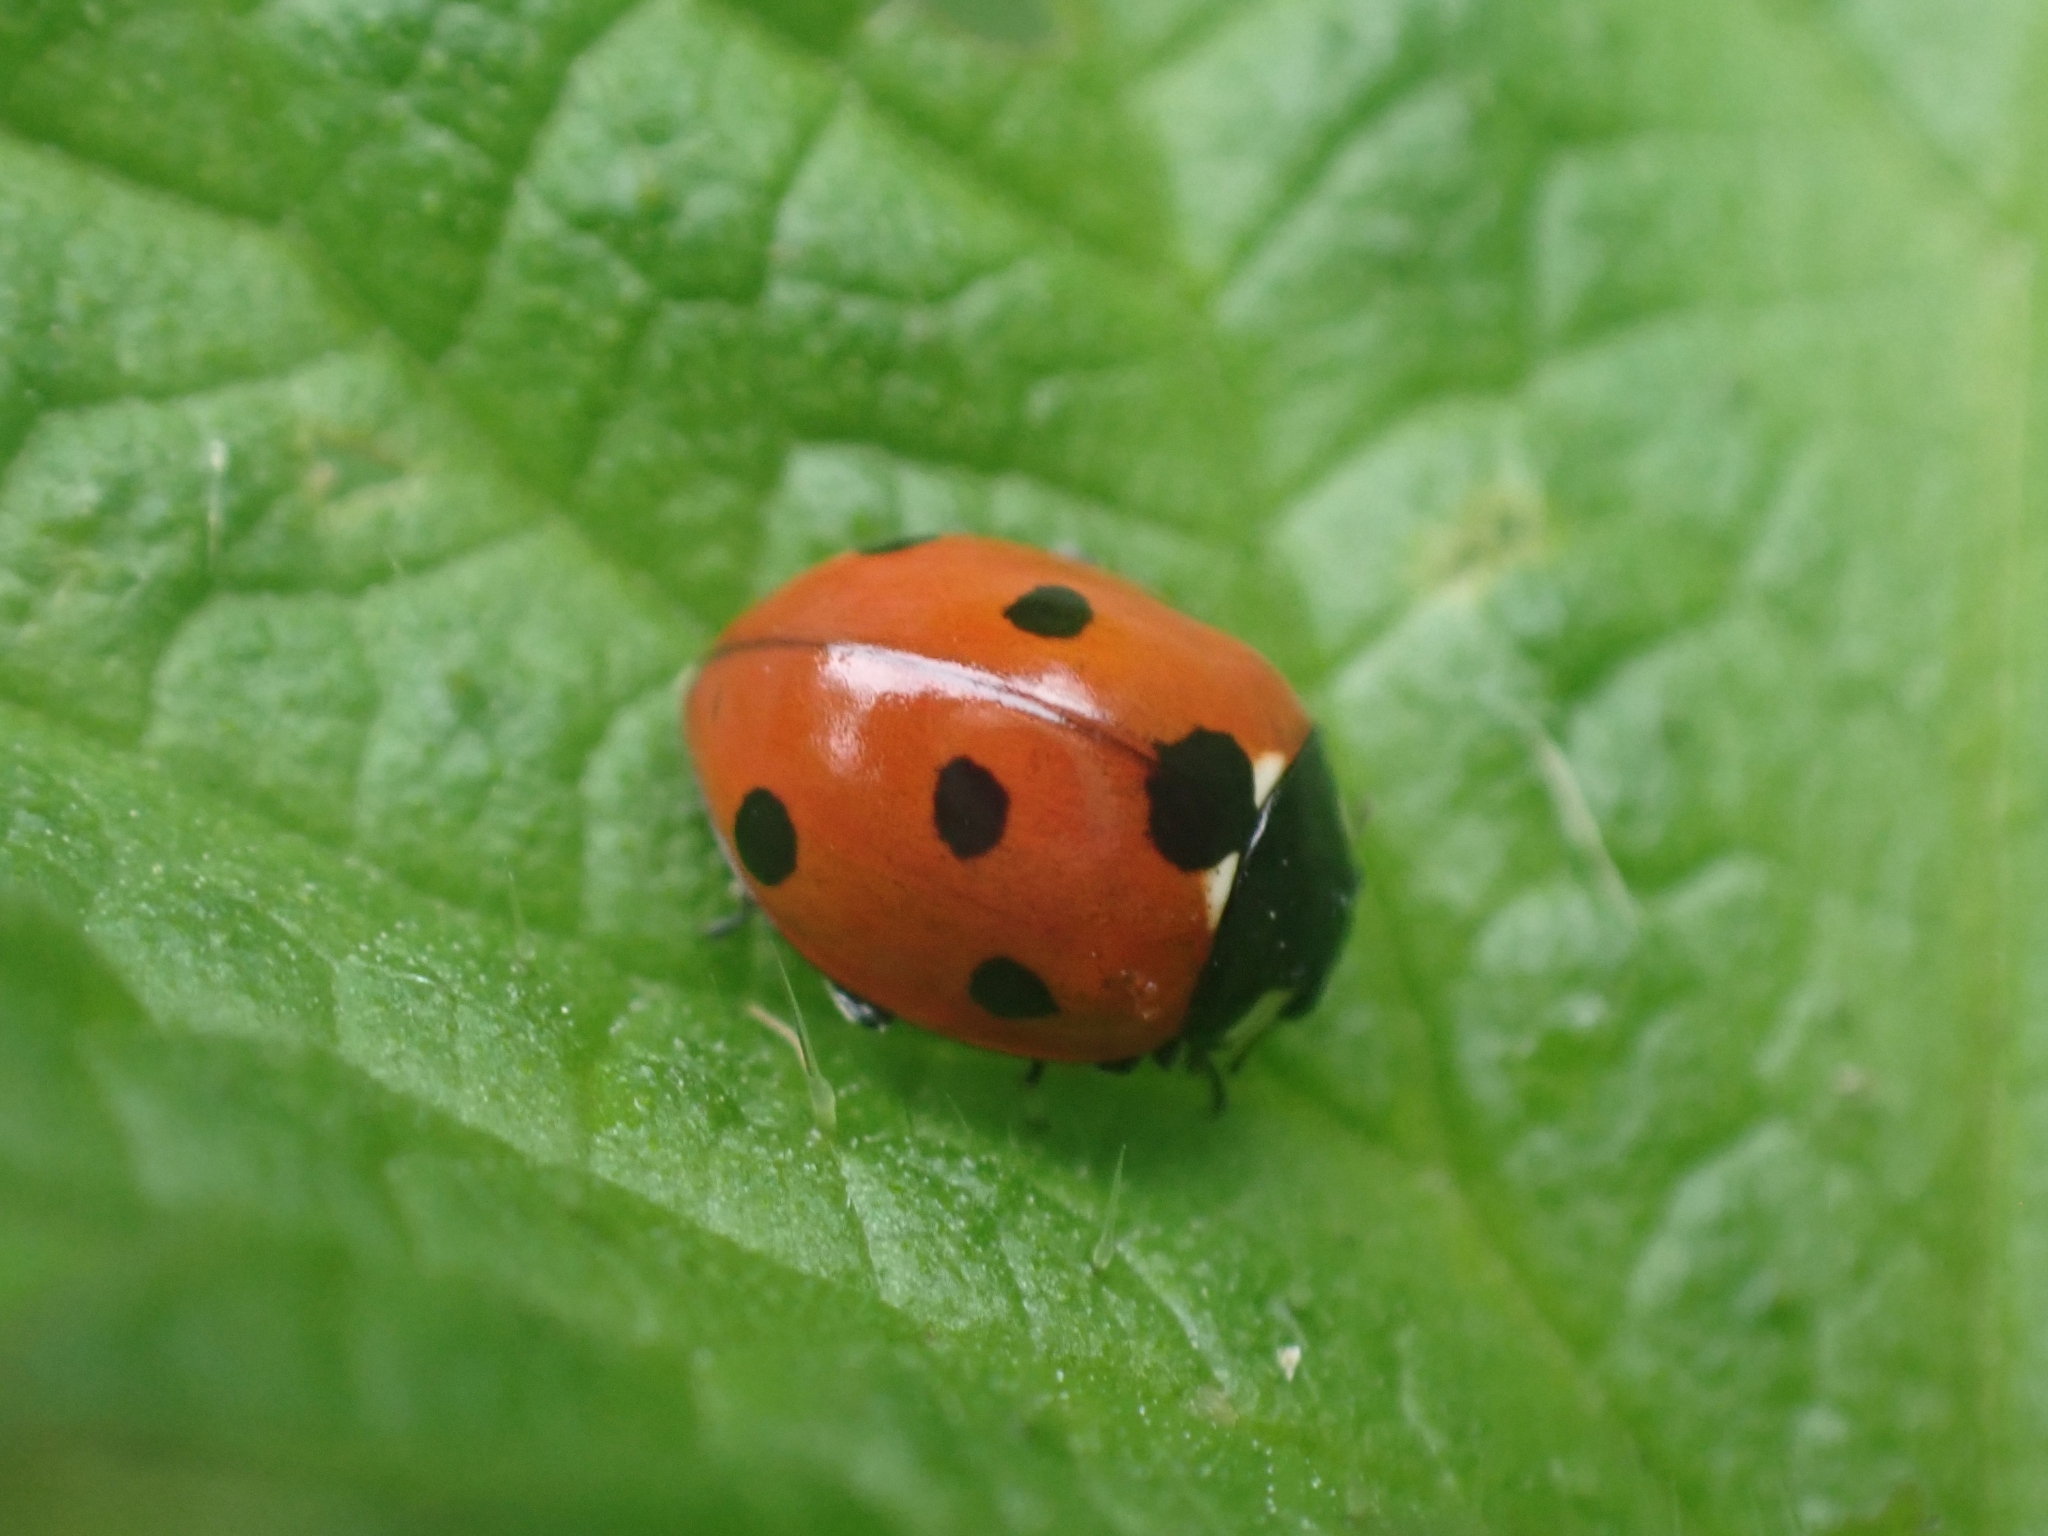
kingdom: Animalia
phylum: Arthropoda
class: Insecta
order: Coleoptera
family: Coccinellidae
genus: Coccinella
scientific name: Coccinella septempunctata
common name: Sevenspotted lady beetle
